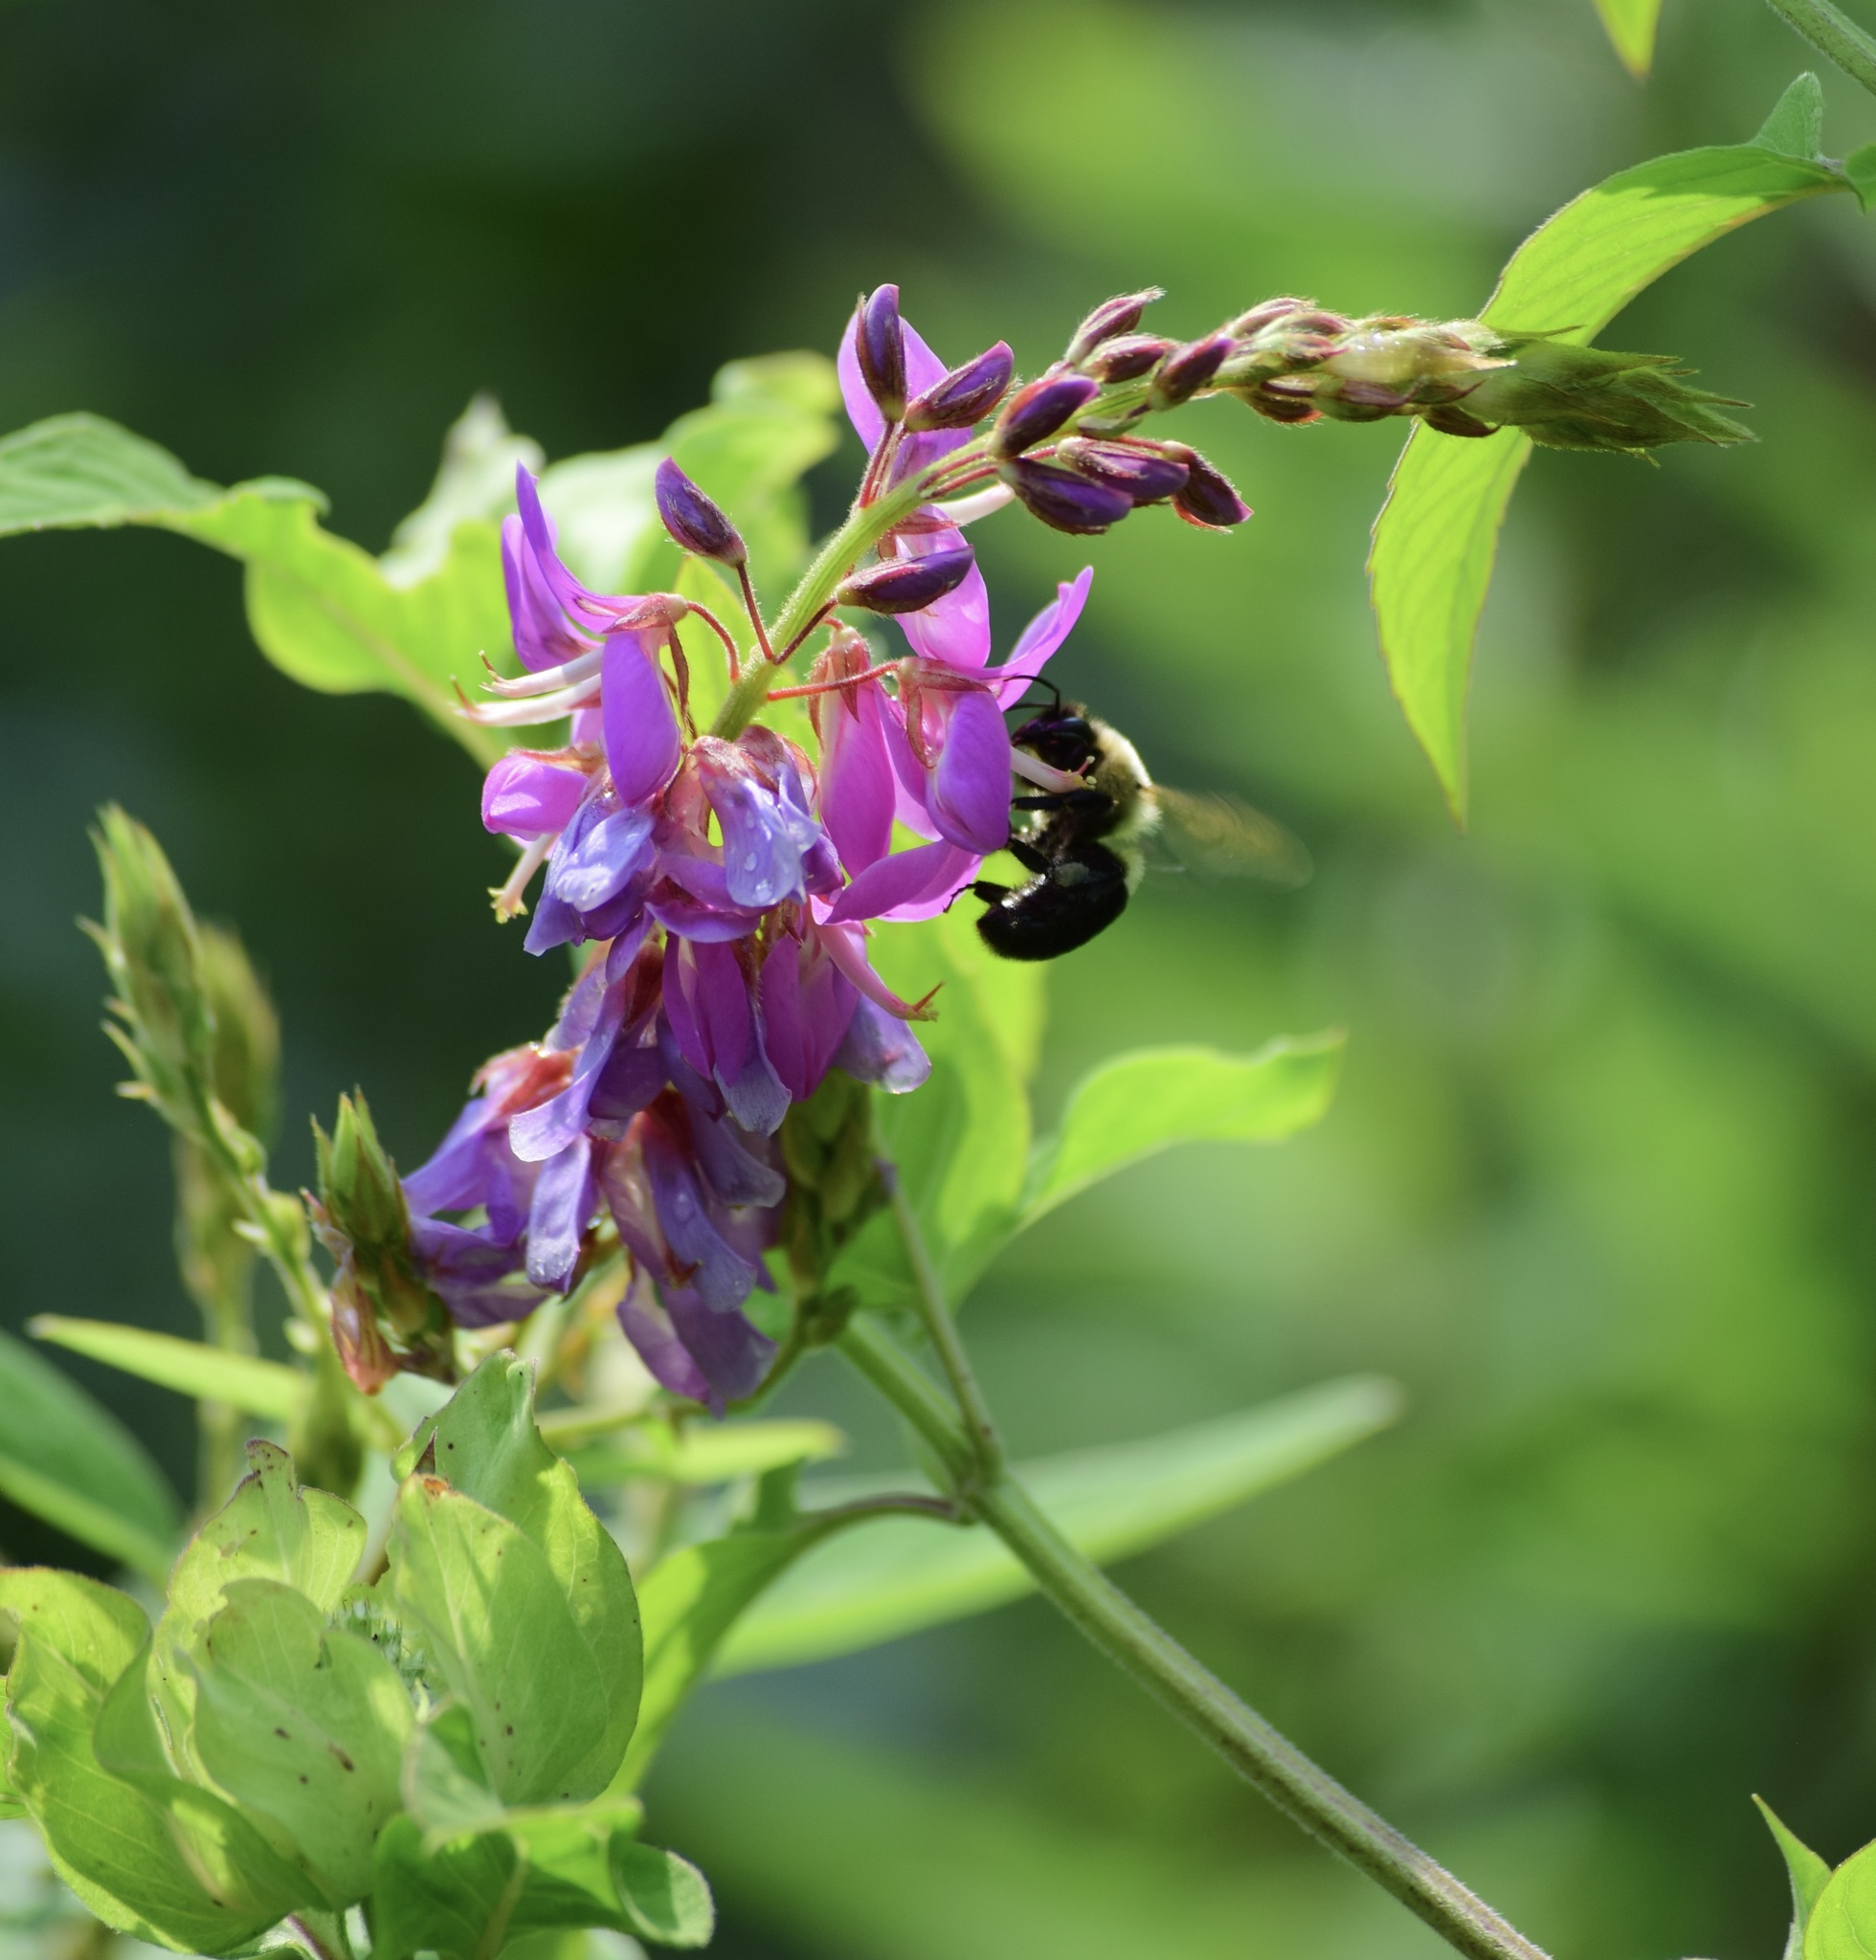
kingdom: Animalia
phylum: Arthropoda
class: Insecta
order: Hymenoptera
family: Apidae
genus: Bombus
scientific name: Bombus impatiens
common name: Common eastern bumble bee
